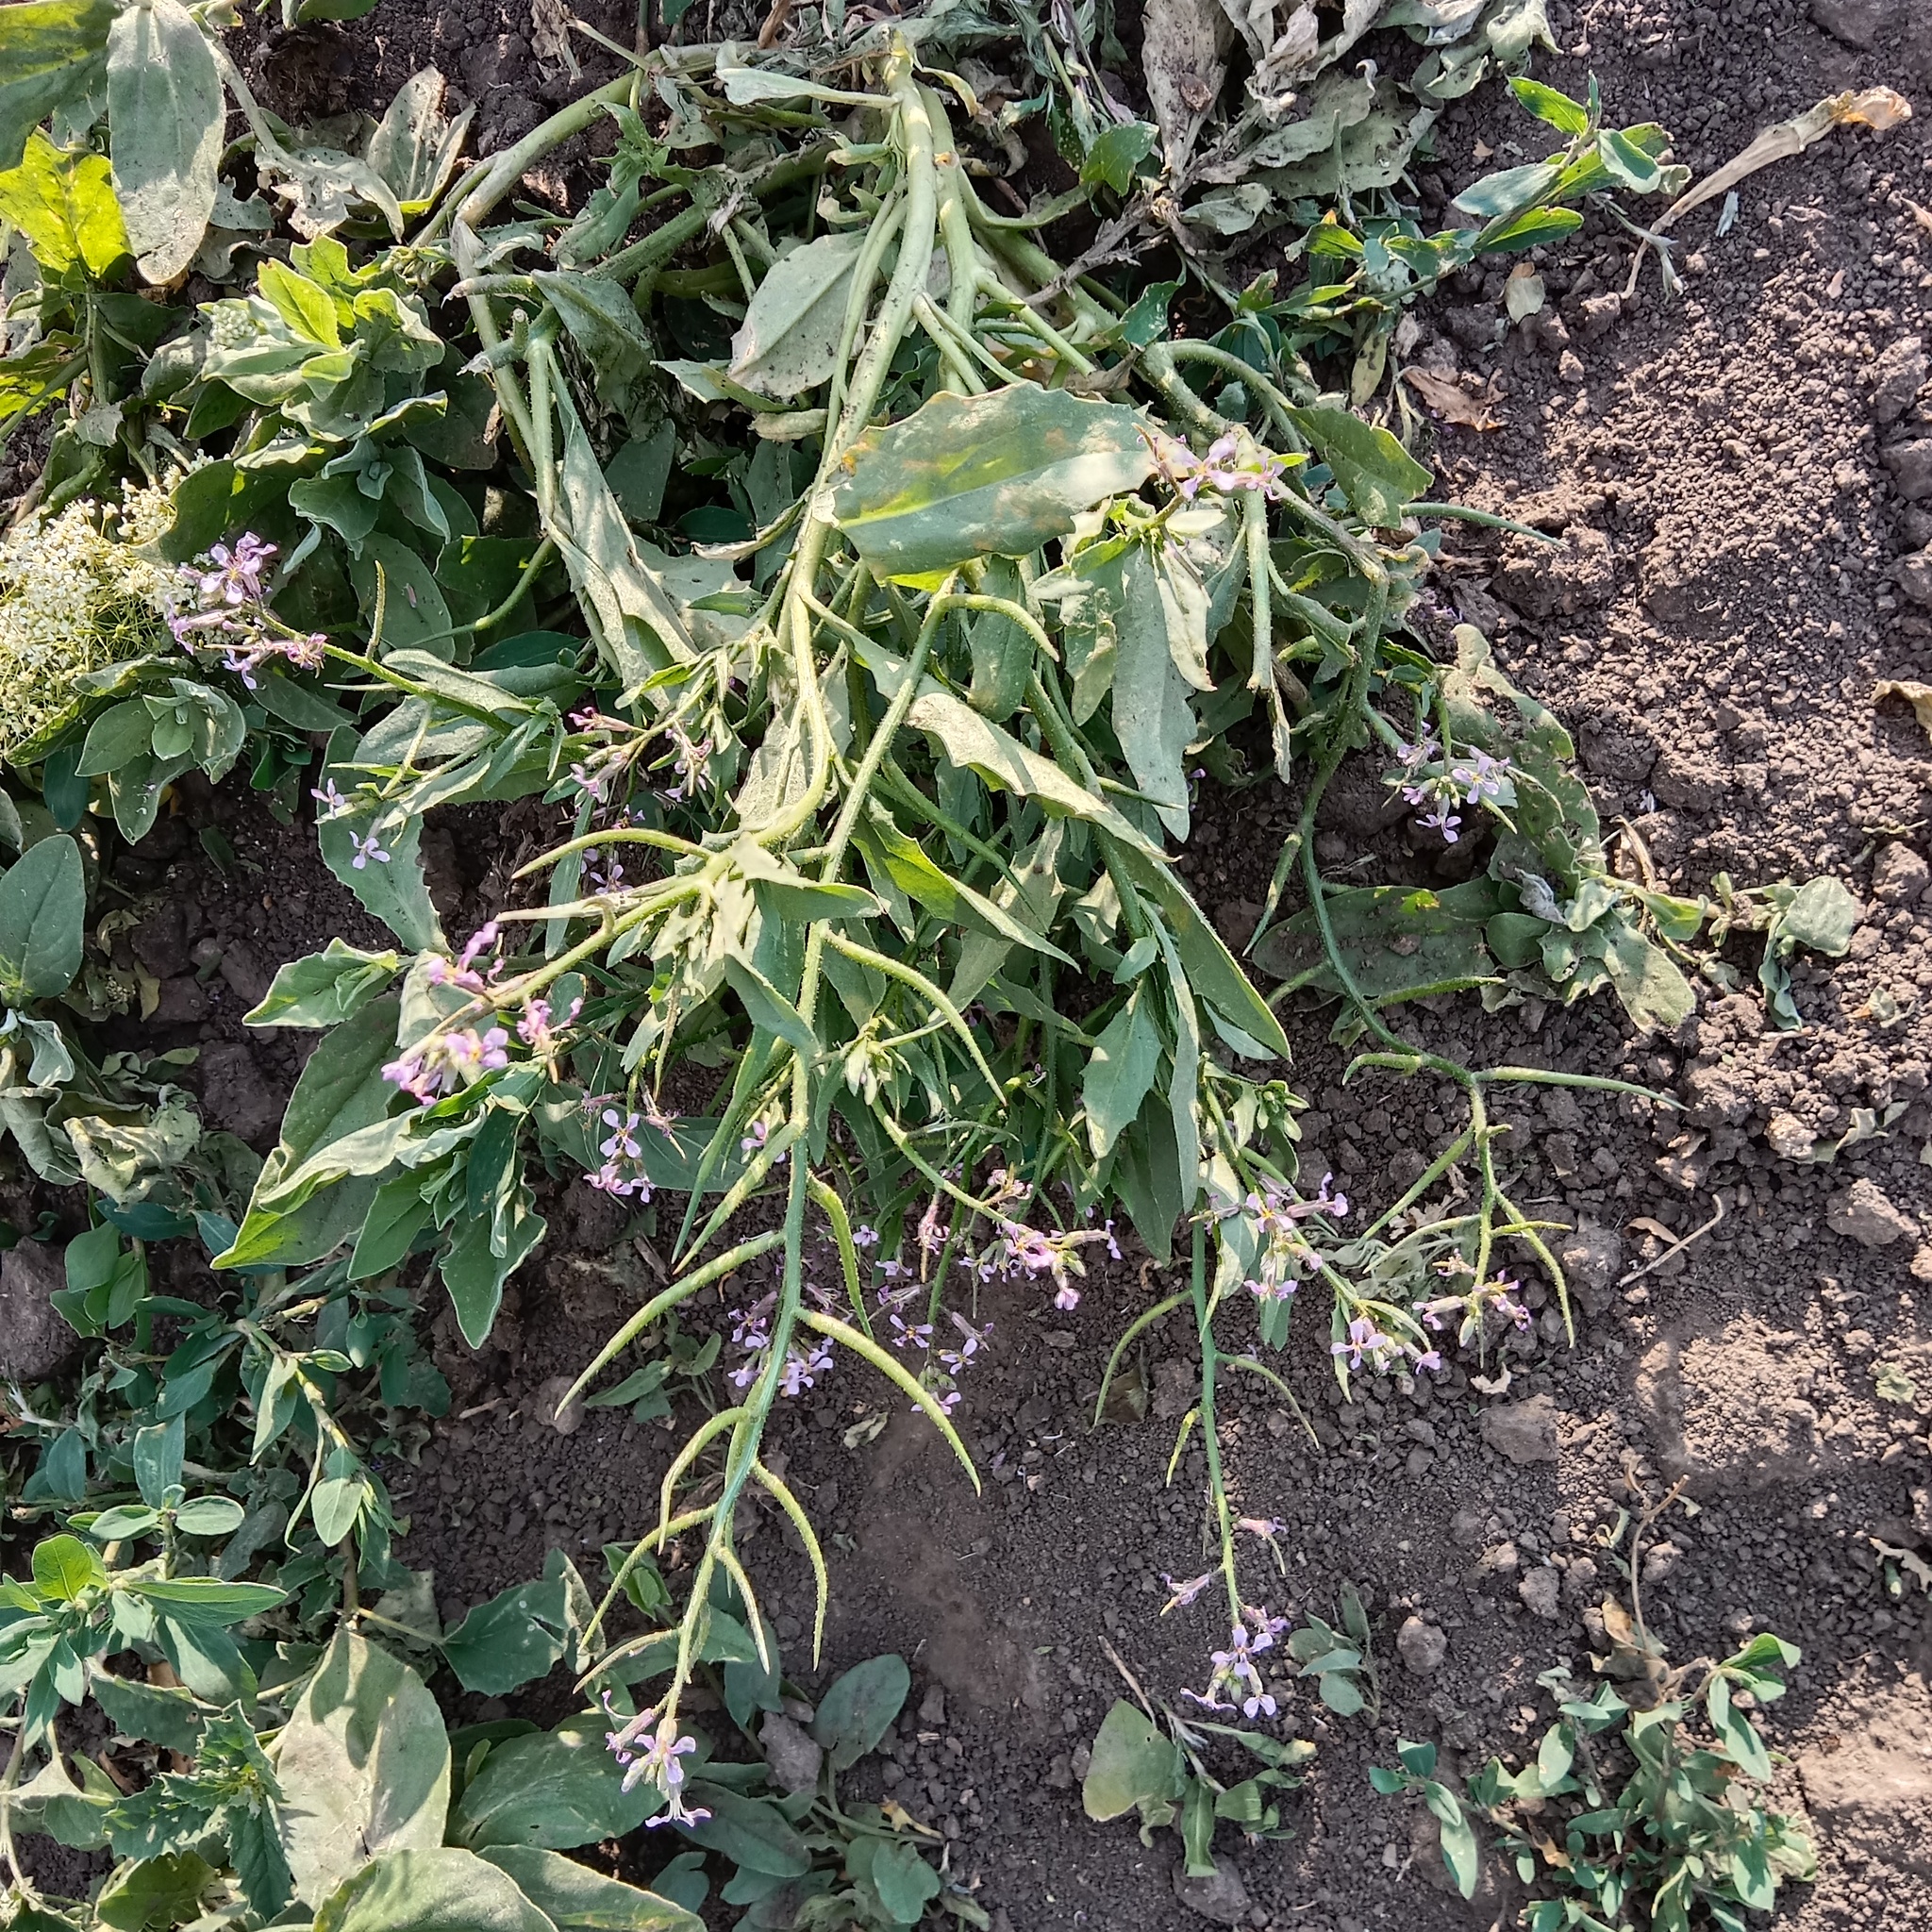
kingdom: Plantae
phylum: Tracheophyta
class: Magnoliopsida
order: Brassicales
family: Brassicaceae
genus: Chorispora
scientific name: Chorispora tenella
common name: Crossflower
